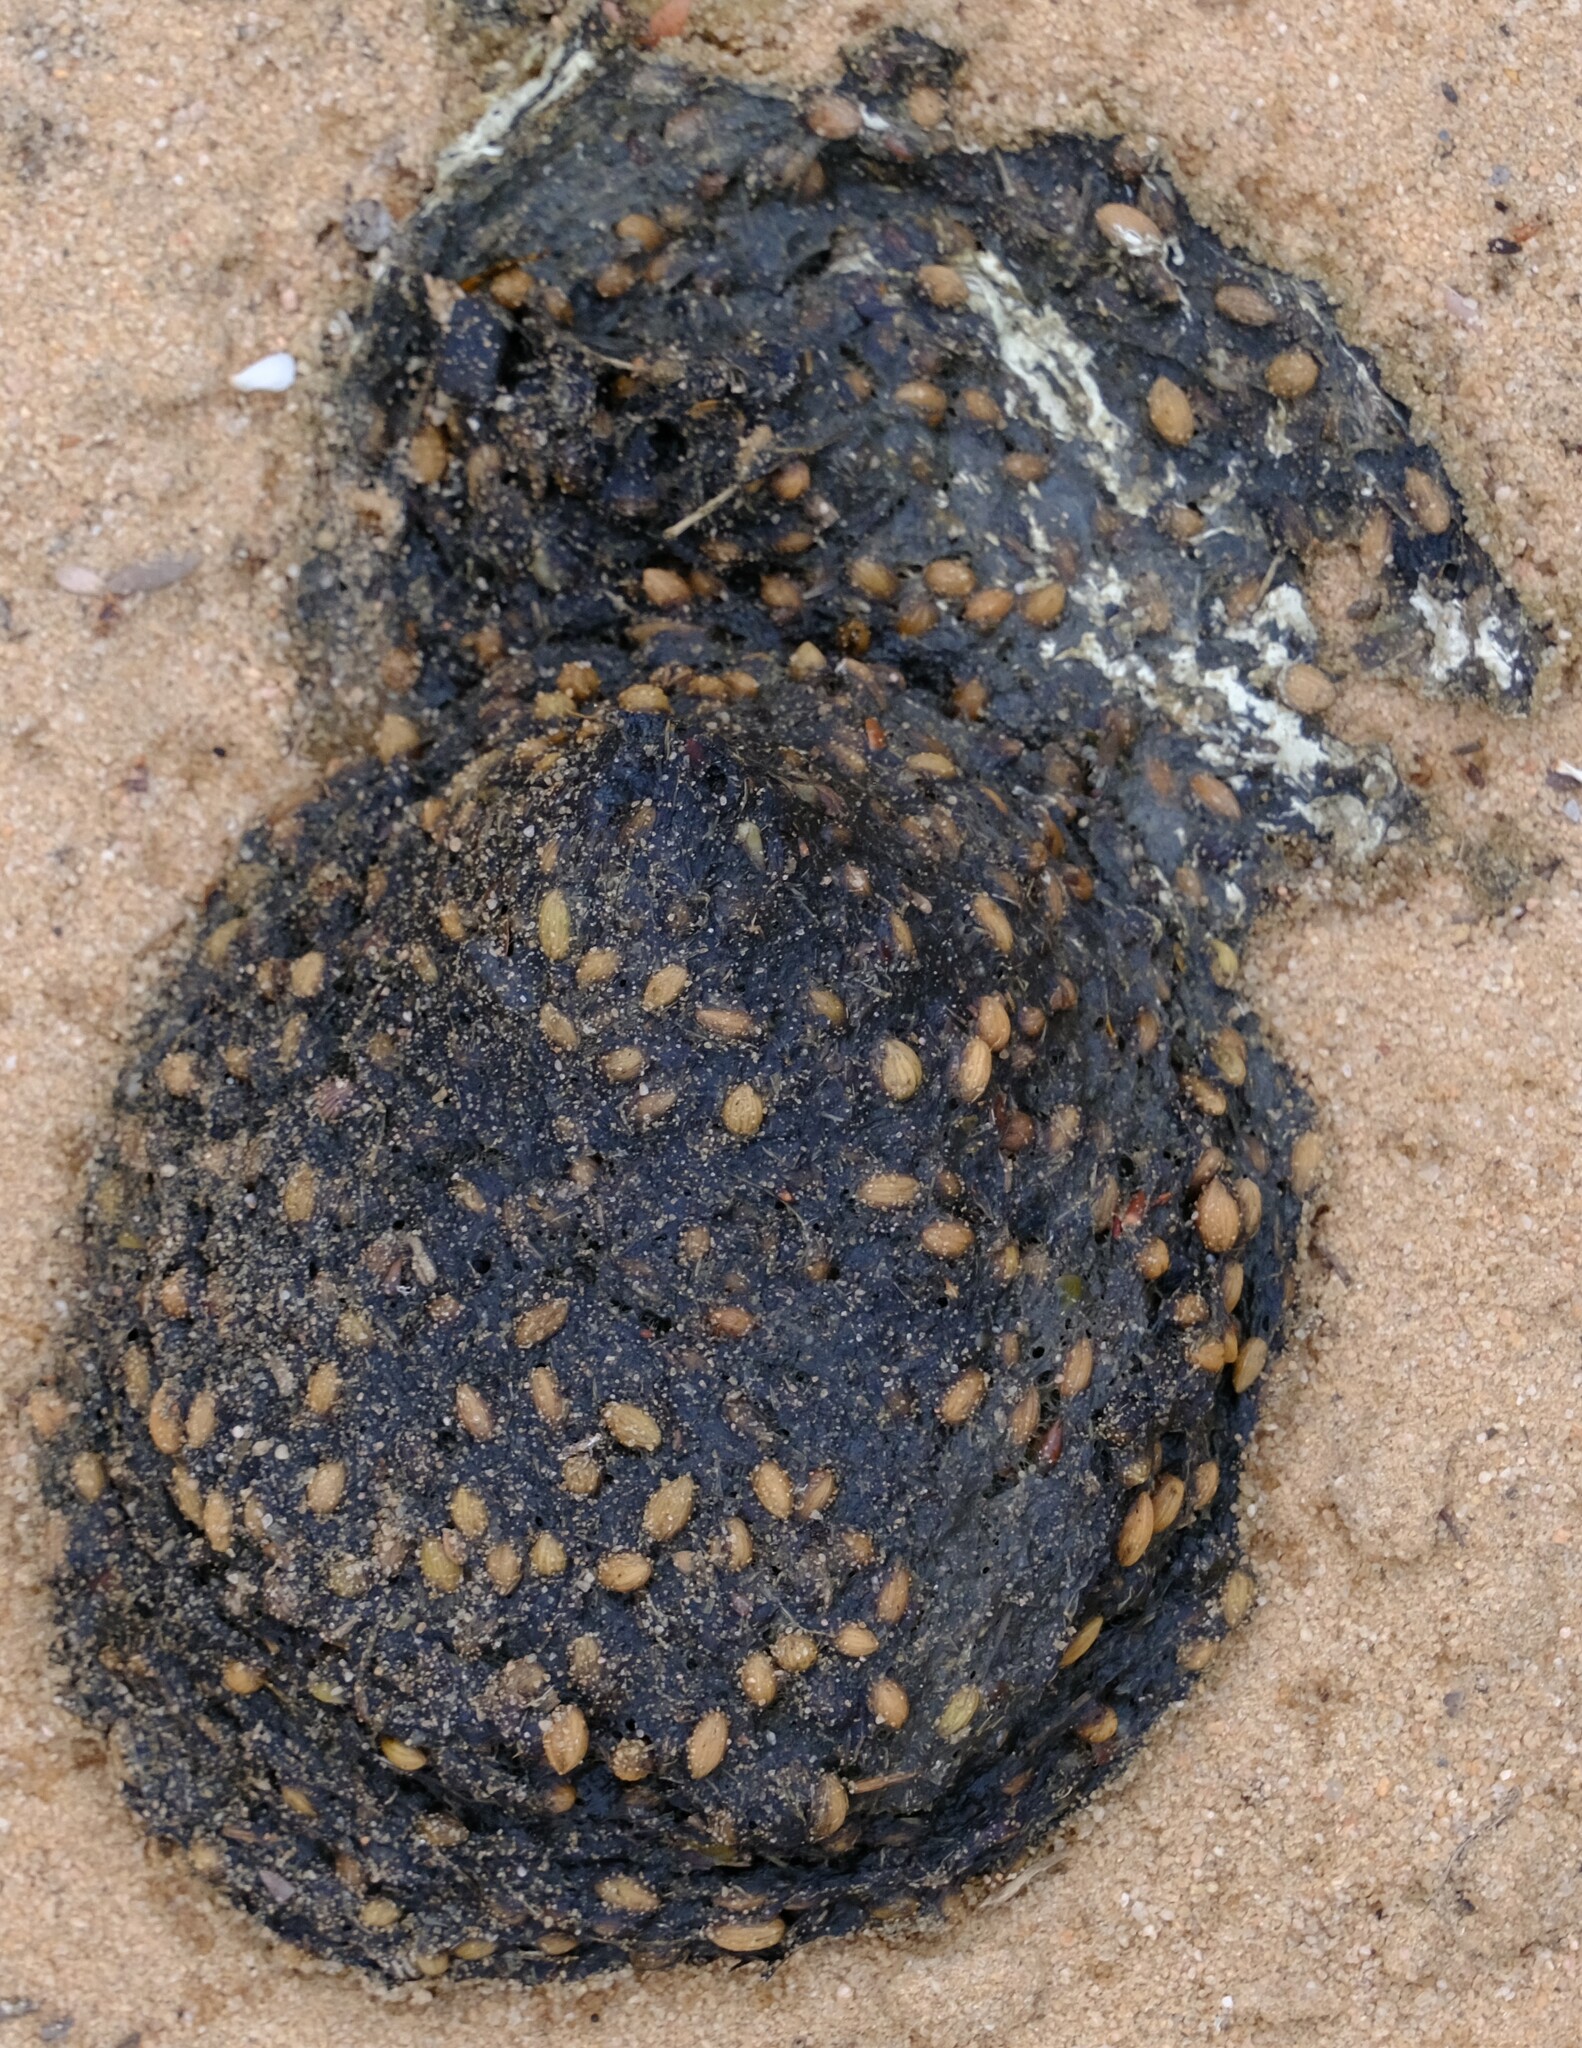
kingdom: Animalia
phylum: Chordata
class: Aves
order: Casuariiformes
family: Dromaiidae
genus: Dromaius
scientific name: Dromaius novaehollandiae
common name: Emu
